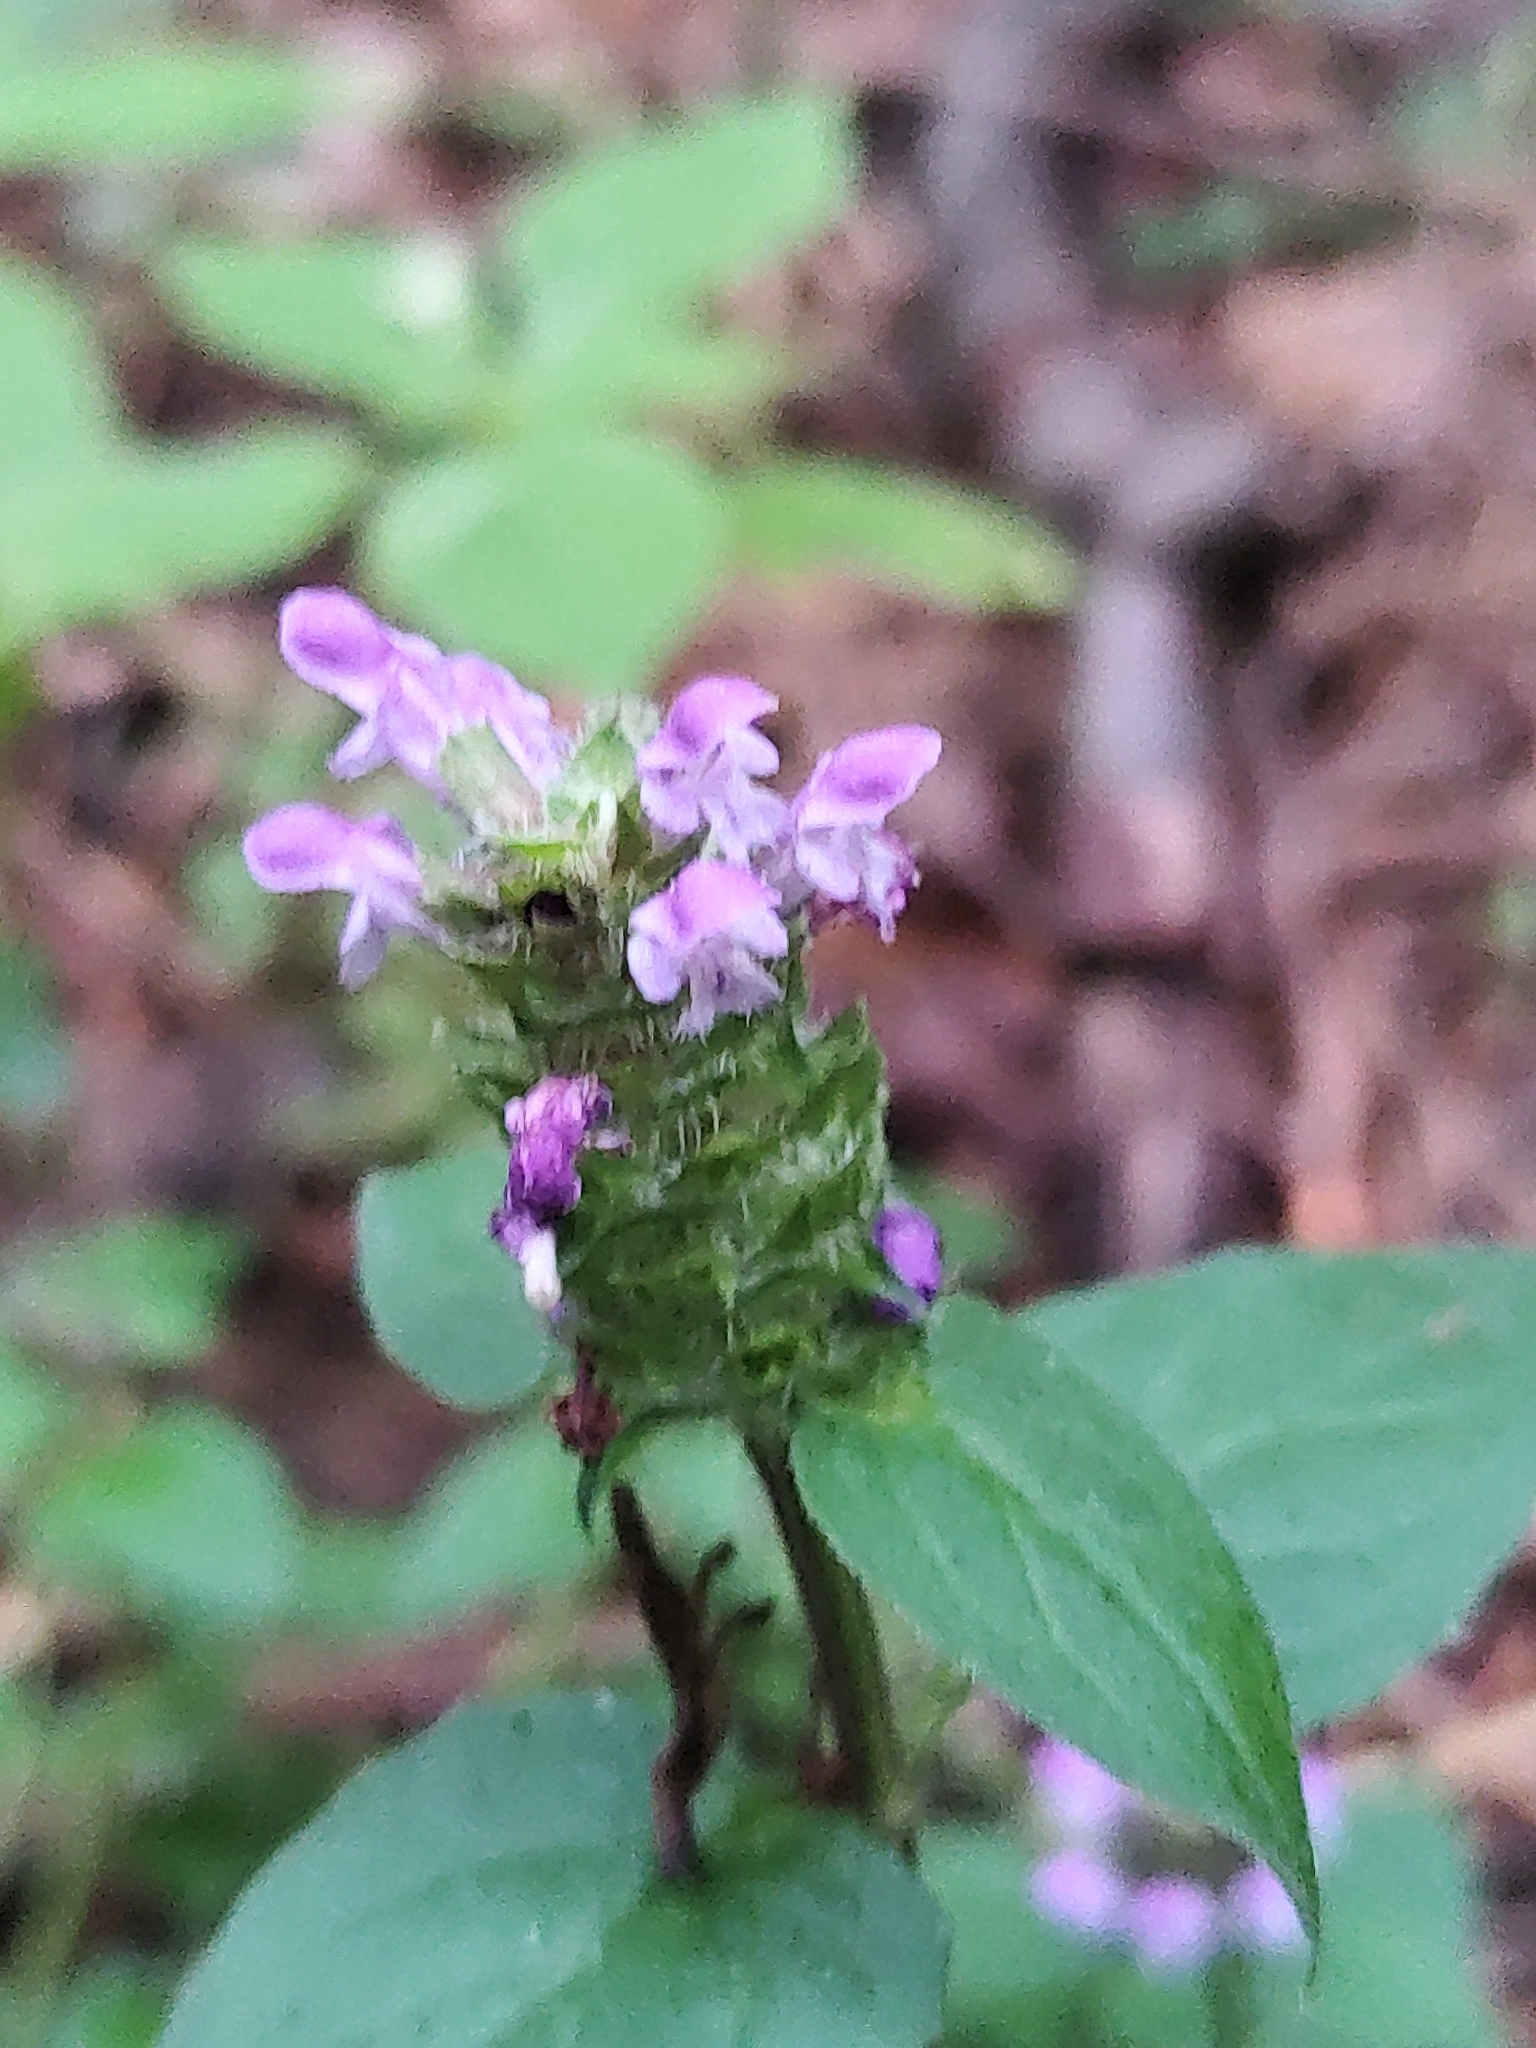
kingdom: Plantae
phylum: Tracheophyta
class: Magnoliopsida
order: Lamiales
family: Lamiaceae
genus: Prunella
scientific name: Prunella vulgaris
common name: Heal-all
